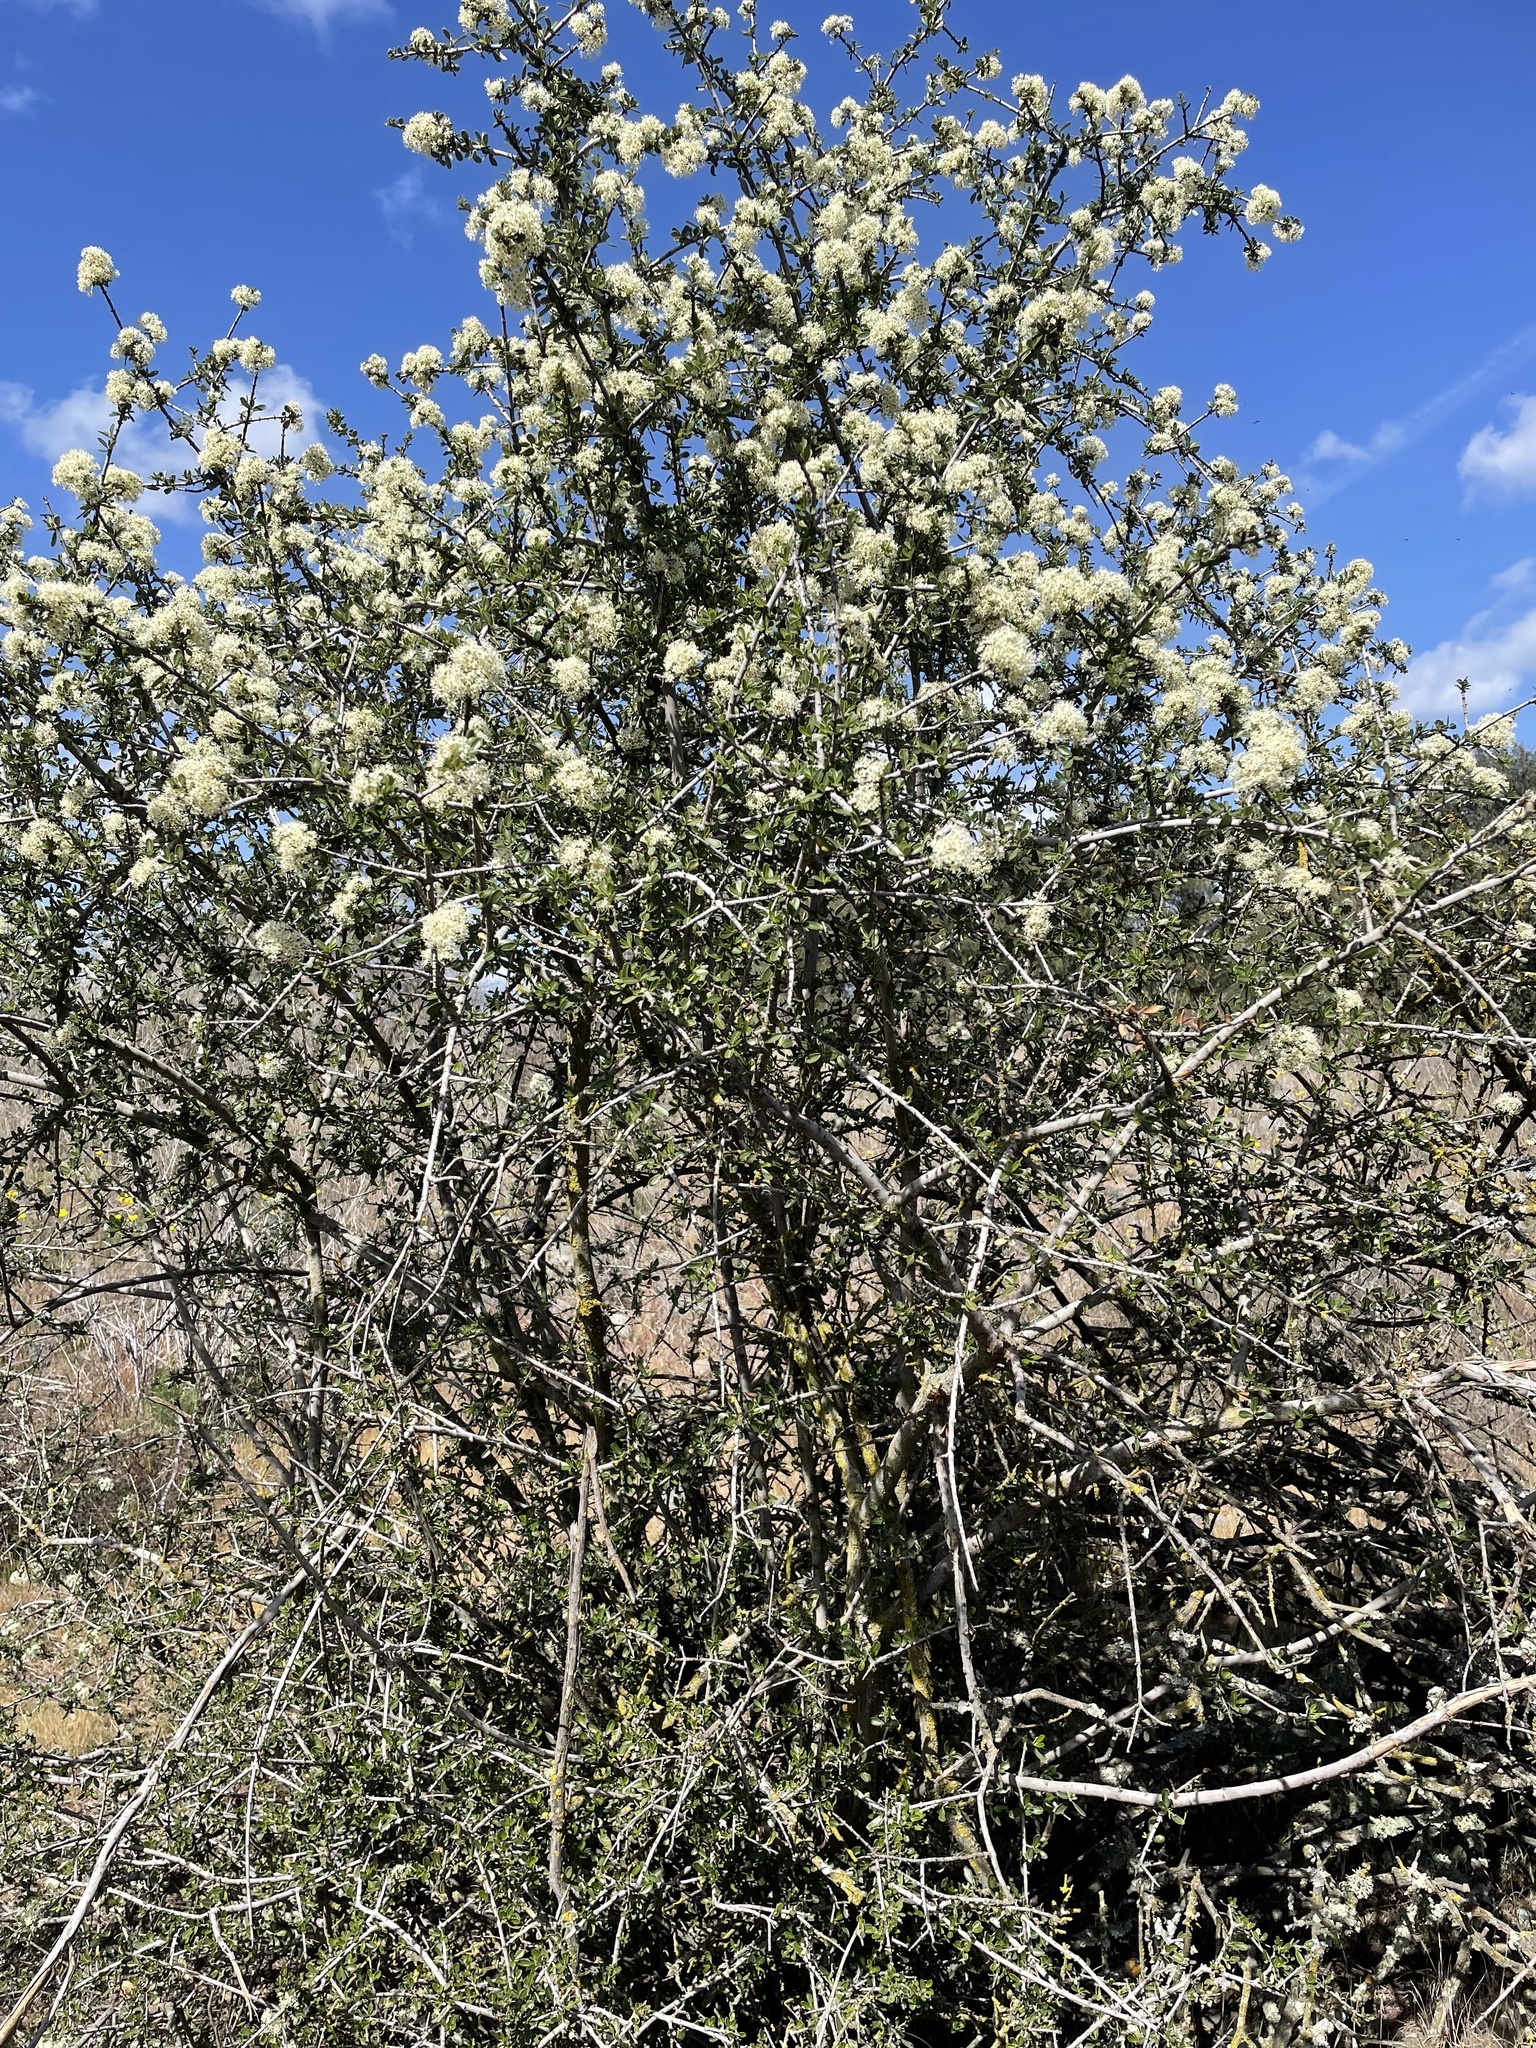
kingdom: Plantae
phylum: Tracheophyta
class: Magnoliopsida
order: Rosales
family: Rhamnaceae
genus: Ceanothus
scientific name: Ceanothus cuneatus
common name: Cuneate ceanothus
